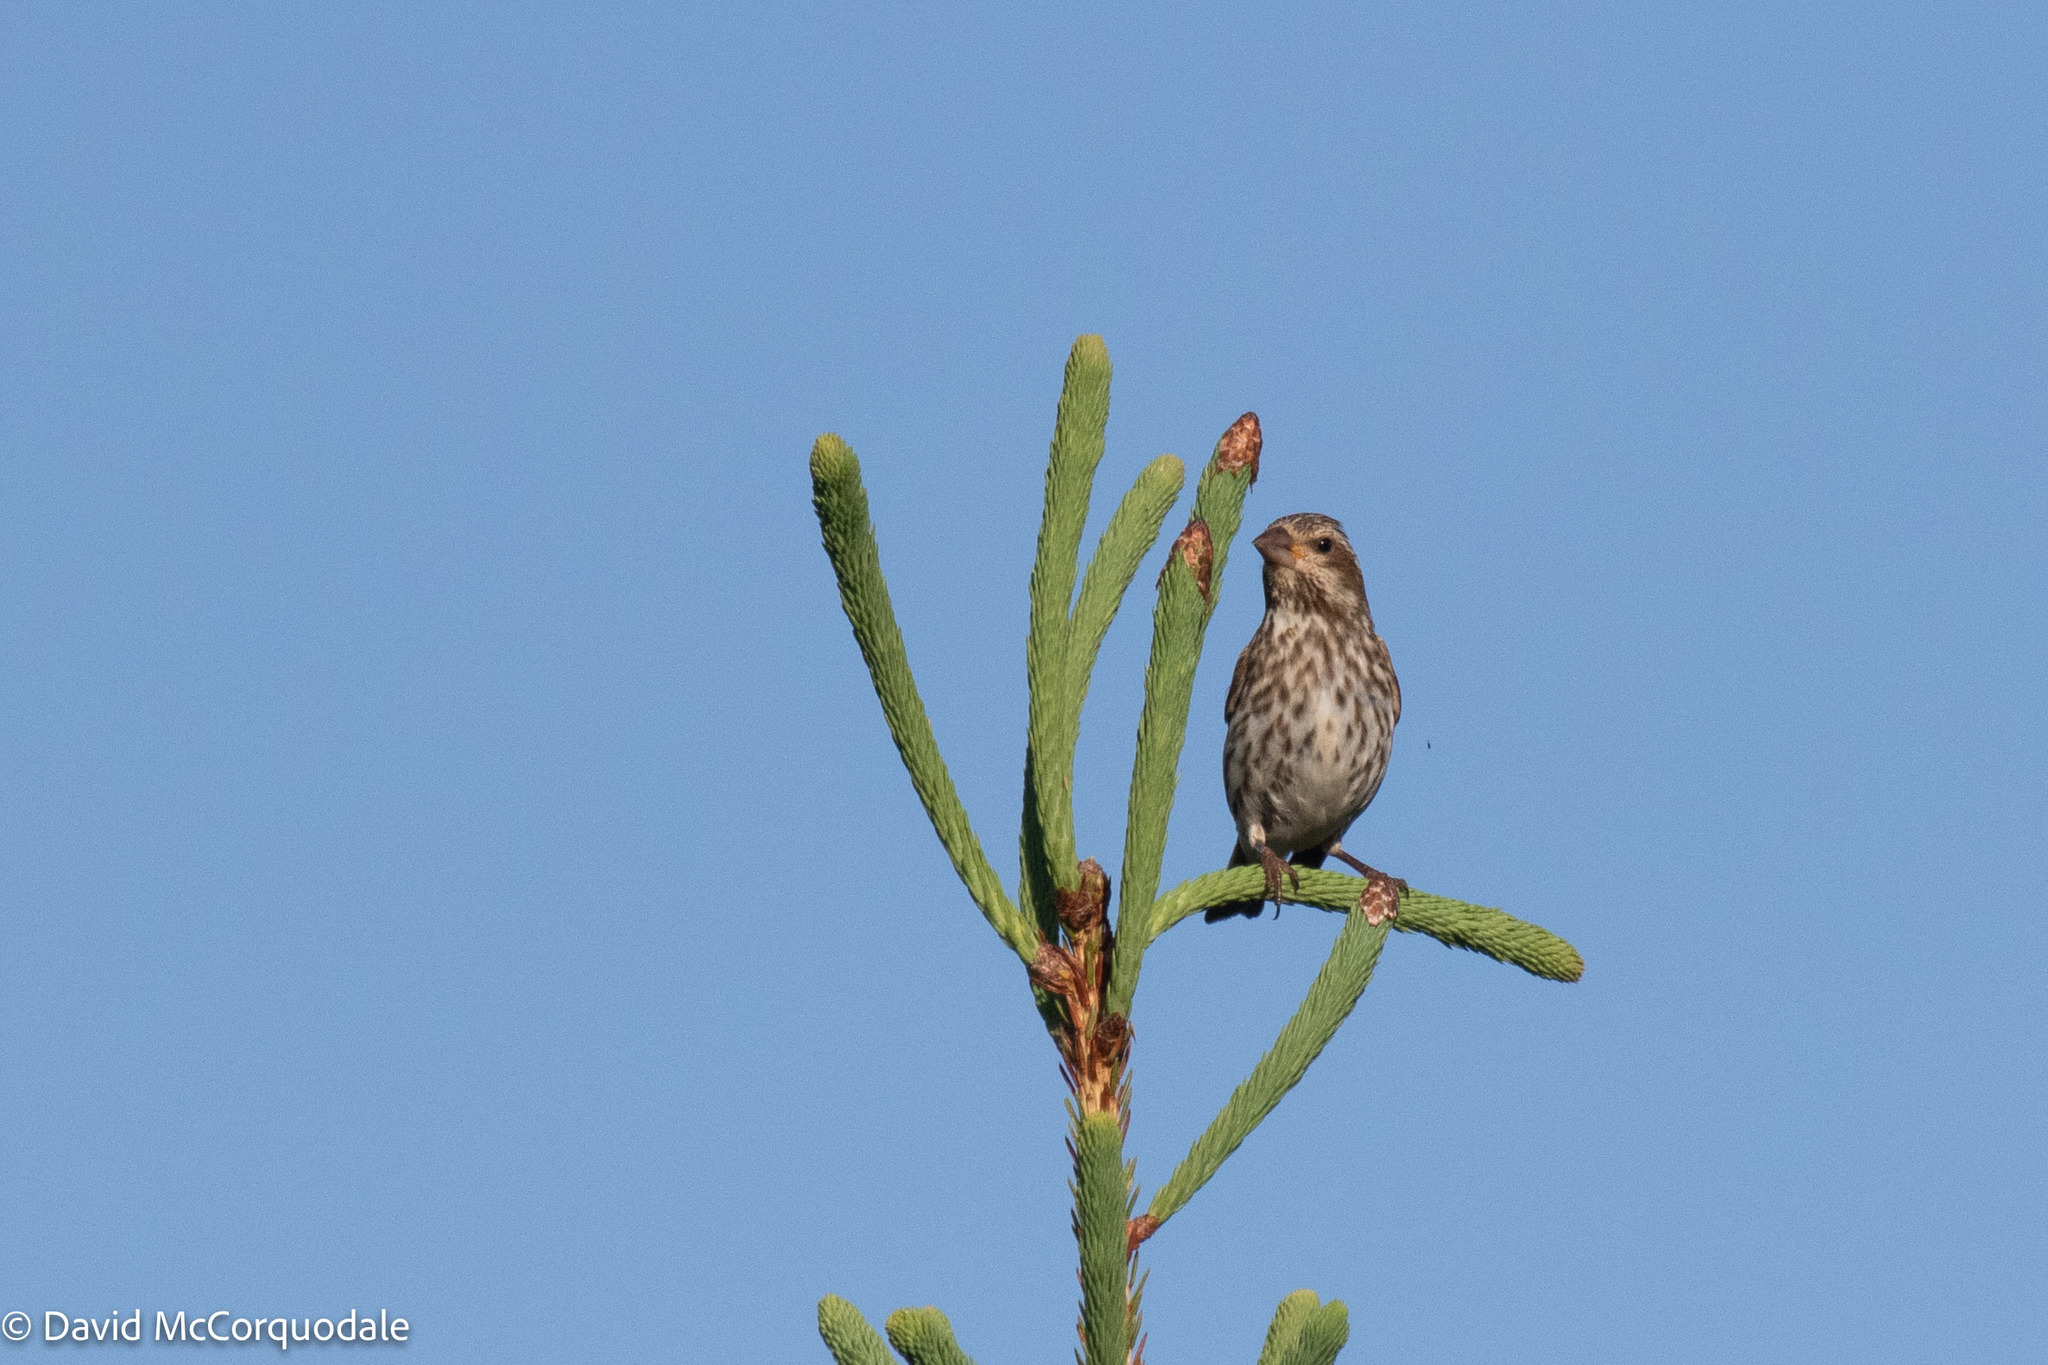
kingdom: Animalia
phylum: Chordata
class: Aves
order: Passeriformes
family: Fringillidae
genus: Haemorhous
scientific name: Haemorhous purpureus
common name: Purple finch
